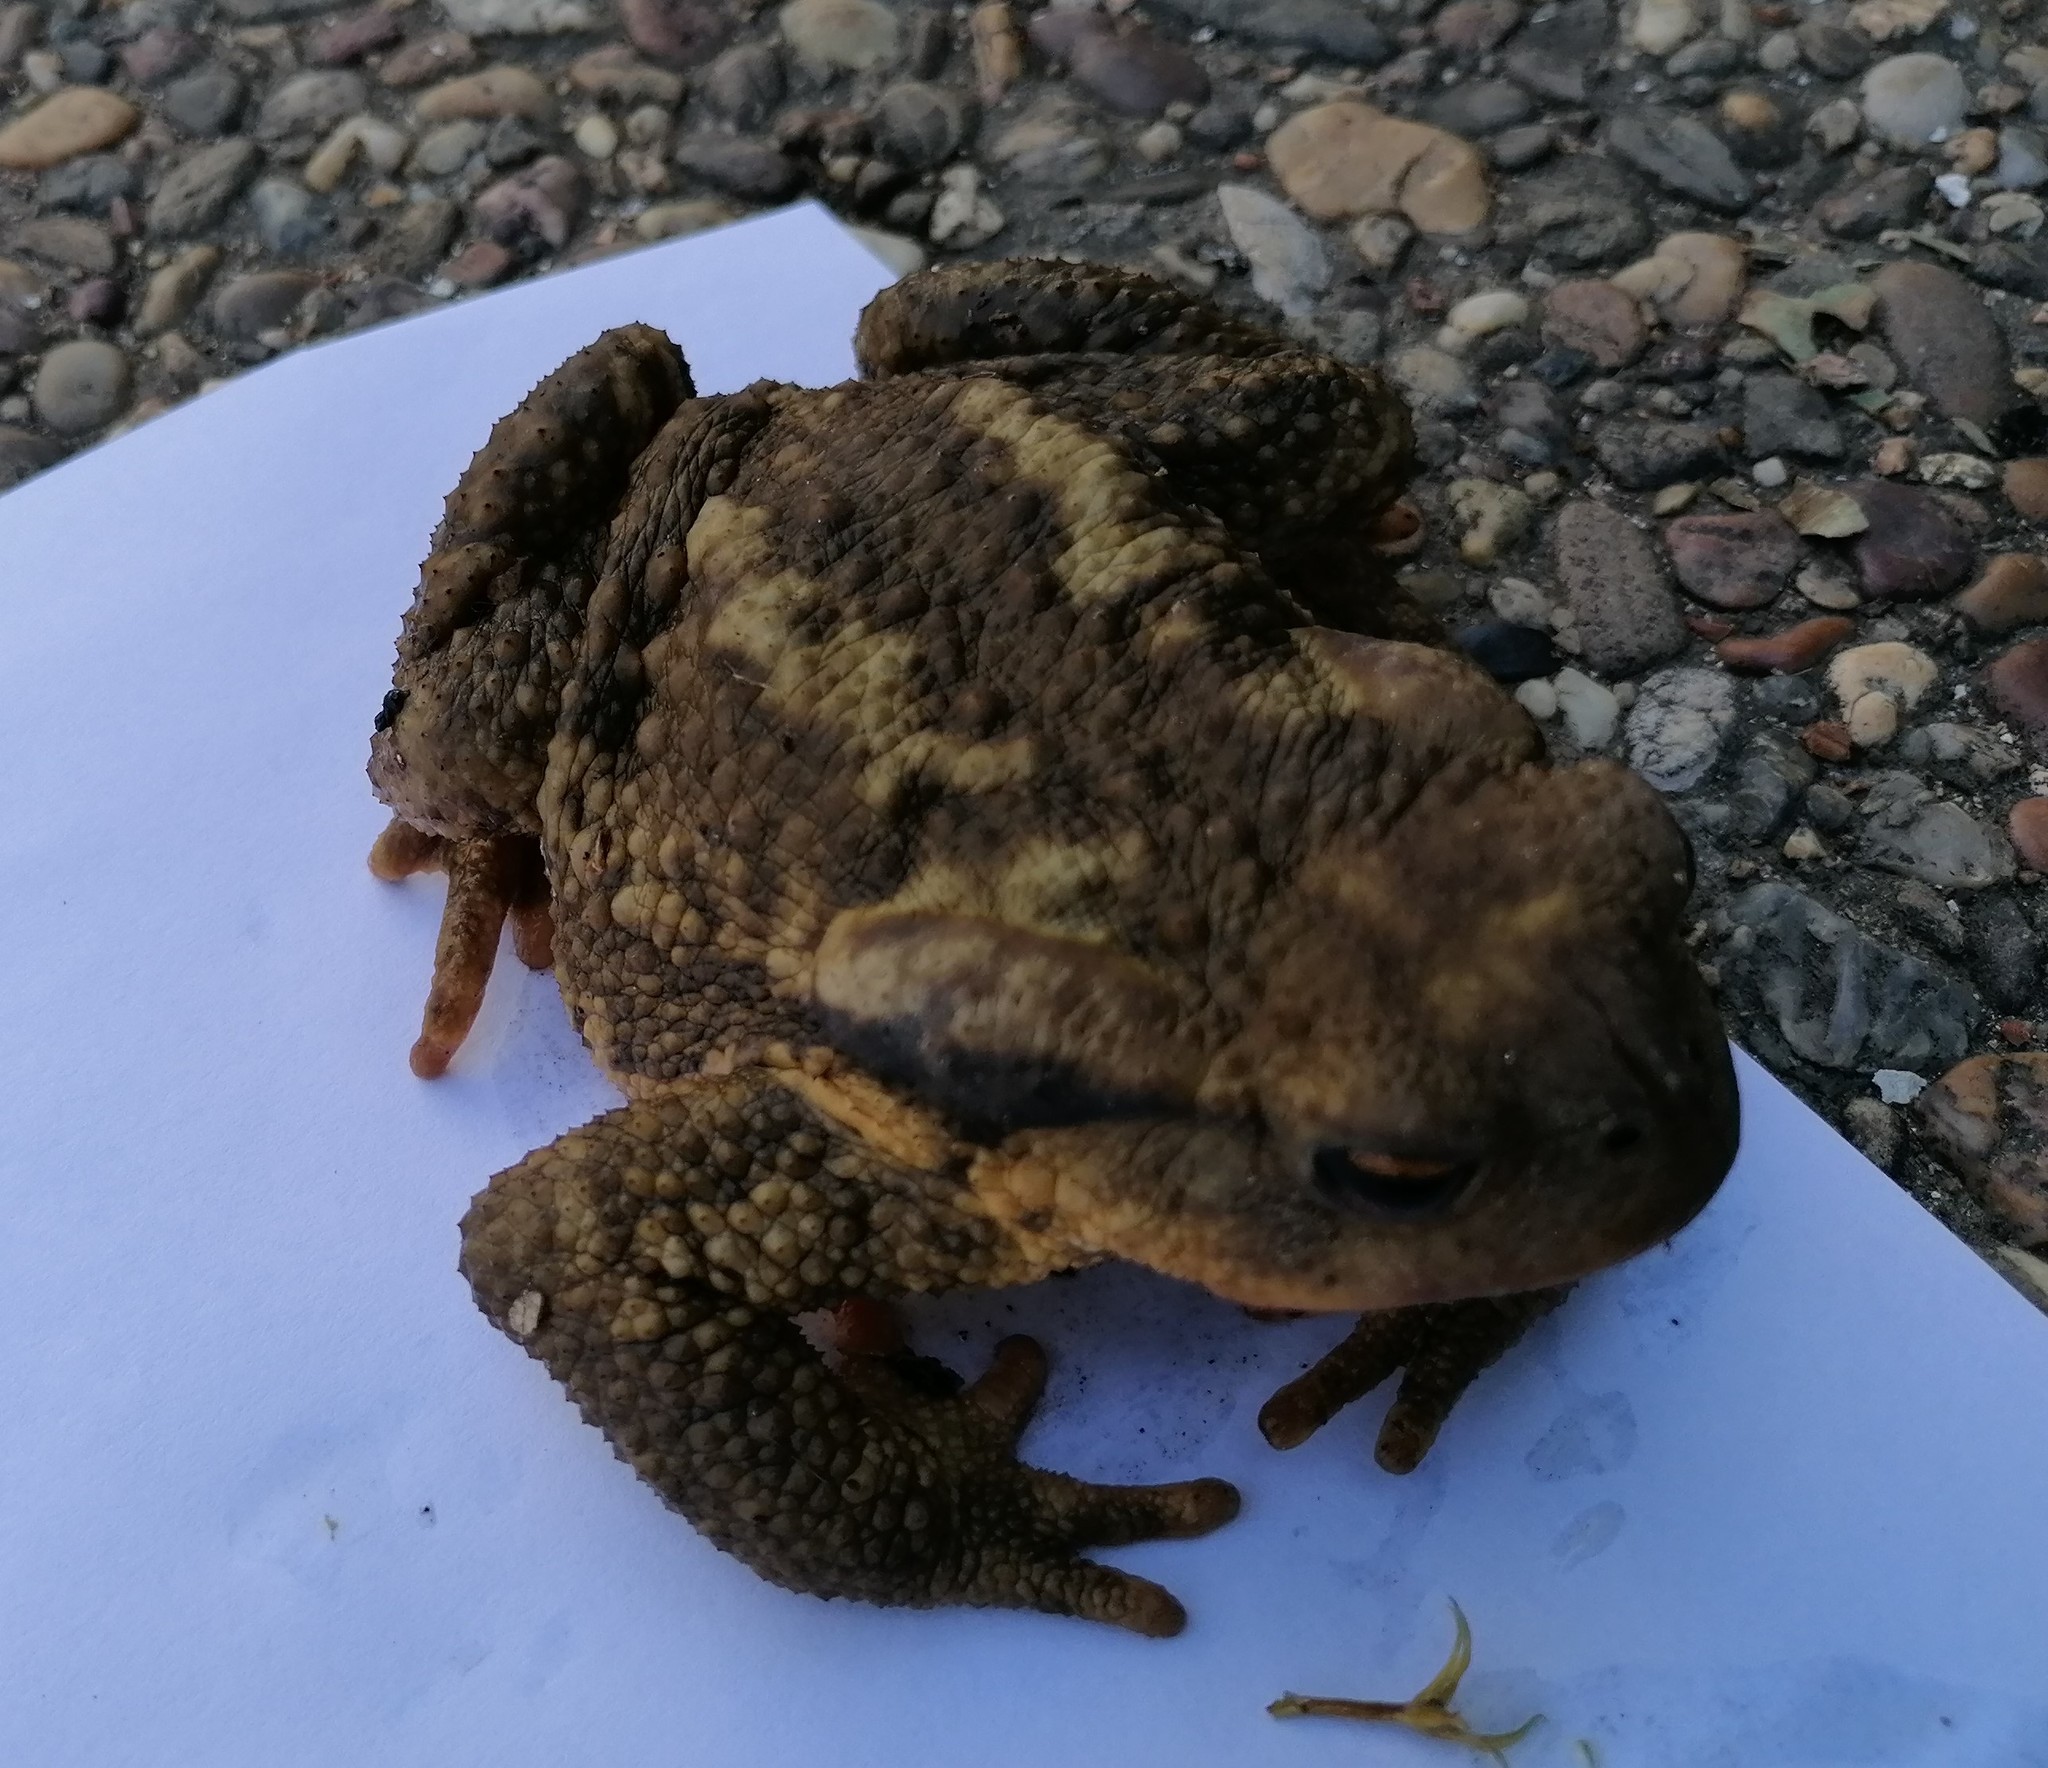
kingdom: Animalia
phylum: Chordata
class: Amphibia
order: Anura
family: Bufonidae
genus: Bufo
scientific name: Bufo spinosus
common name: Western common toad
